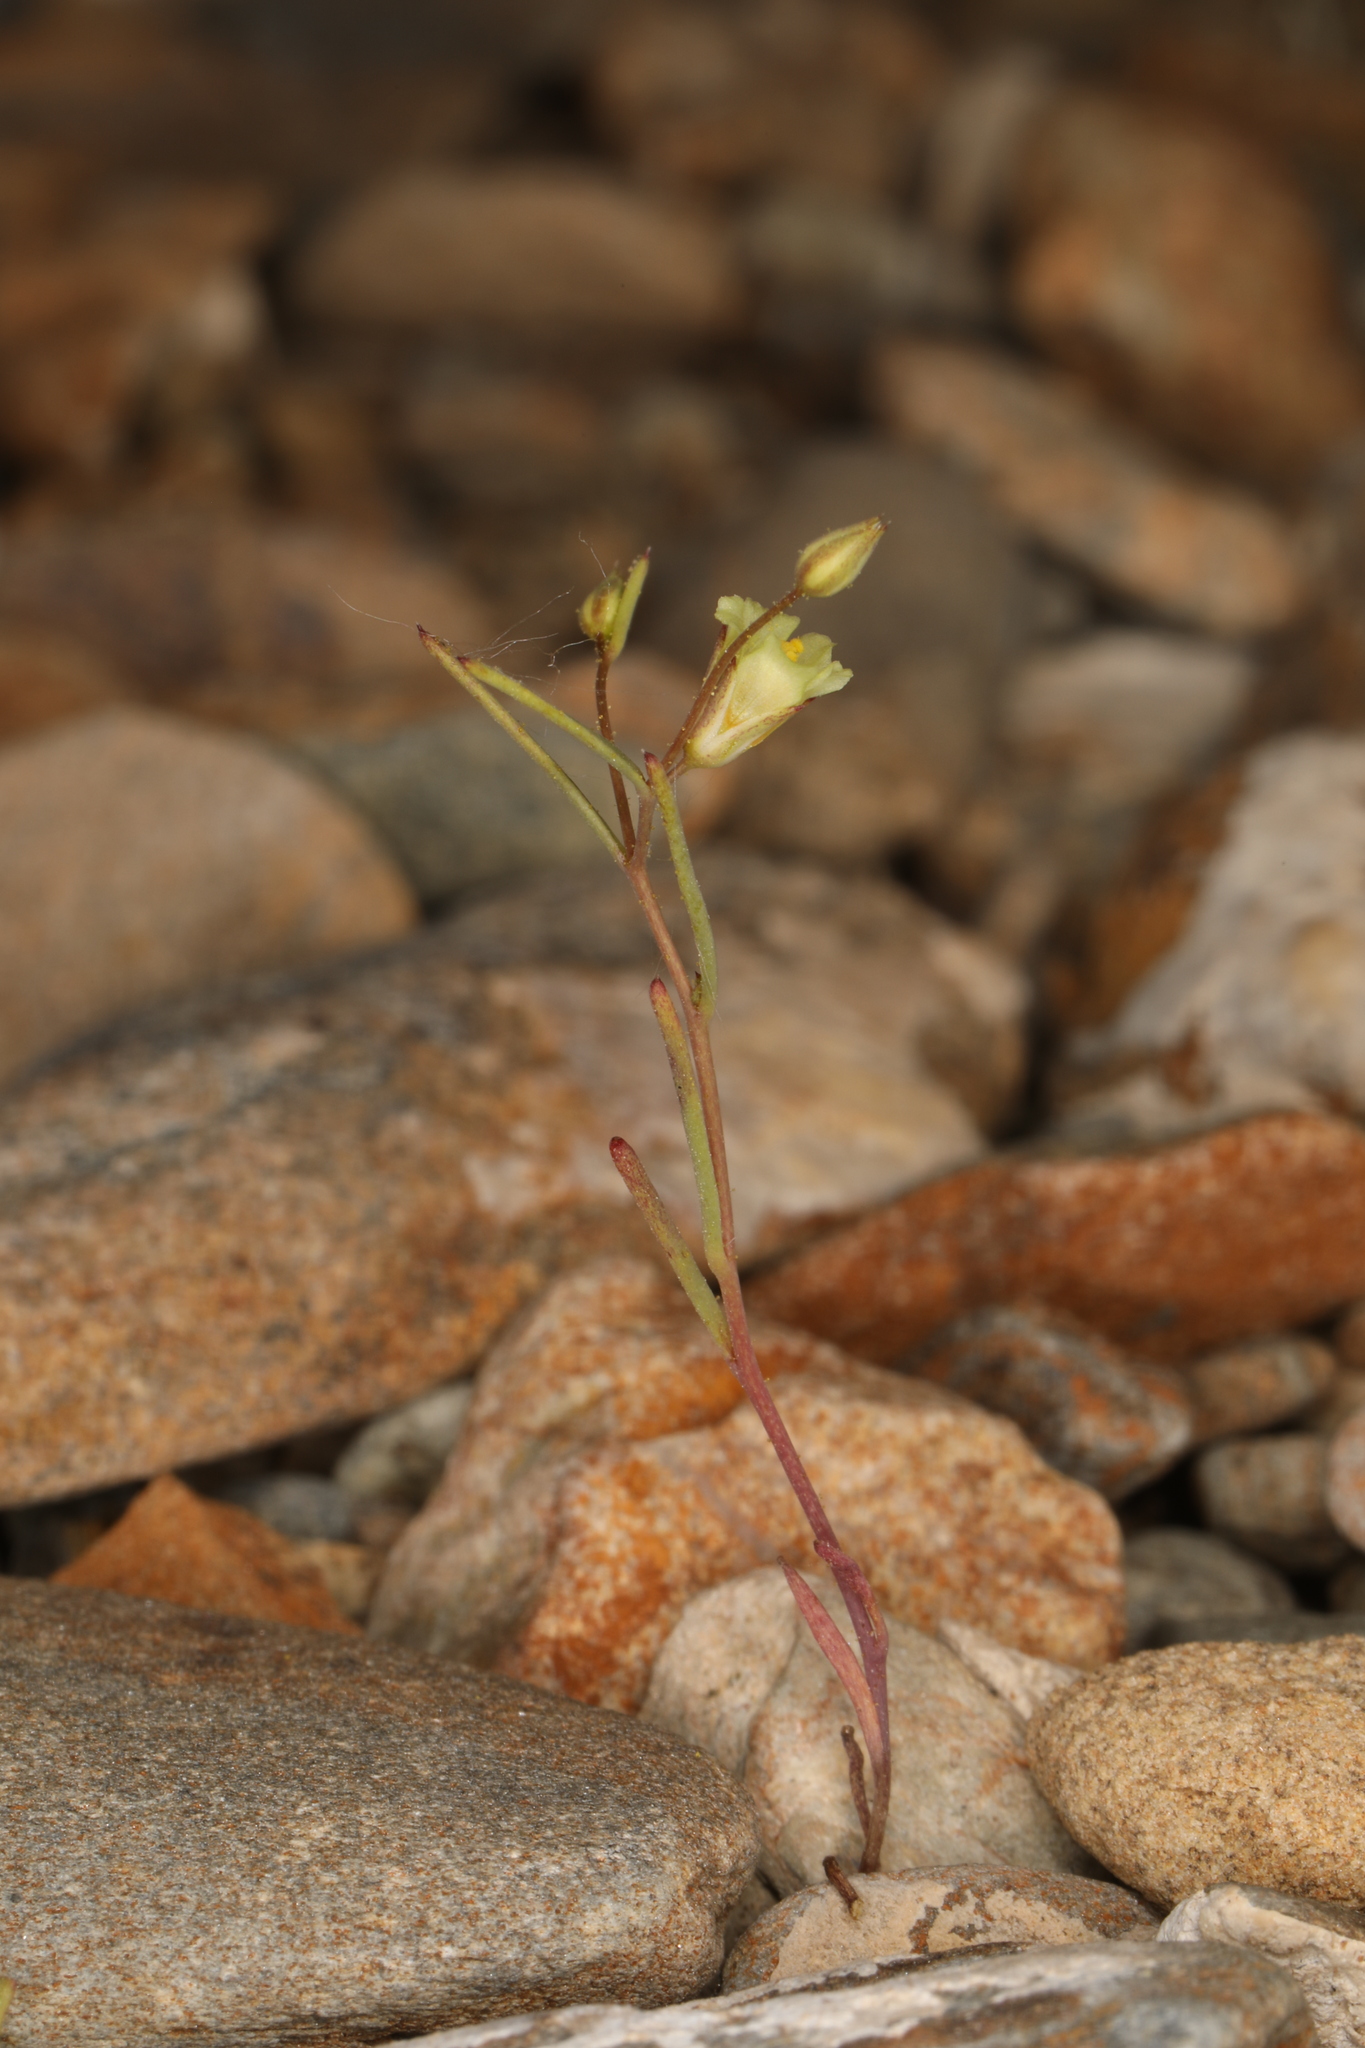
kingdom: Plantae
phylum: Tracheophyta
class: Magnoliopsida
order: Ericales
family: Polemoniaceae
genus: Linanthus
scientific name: Linanthus filiformis
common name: Yellow gilia
